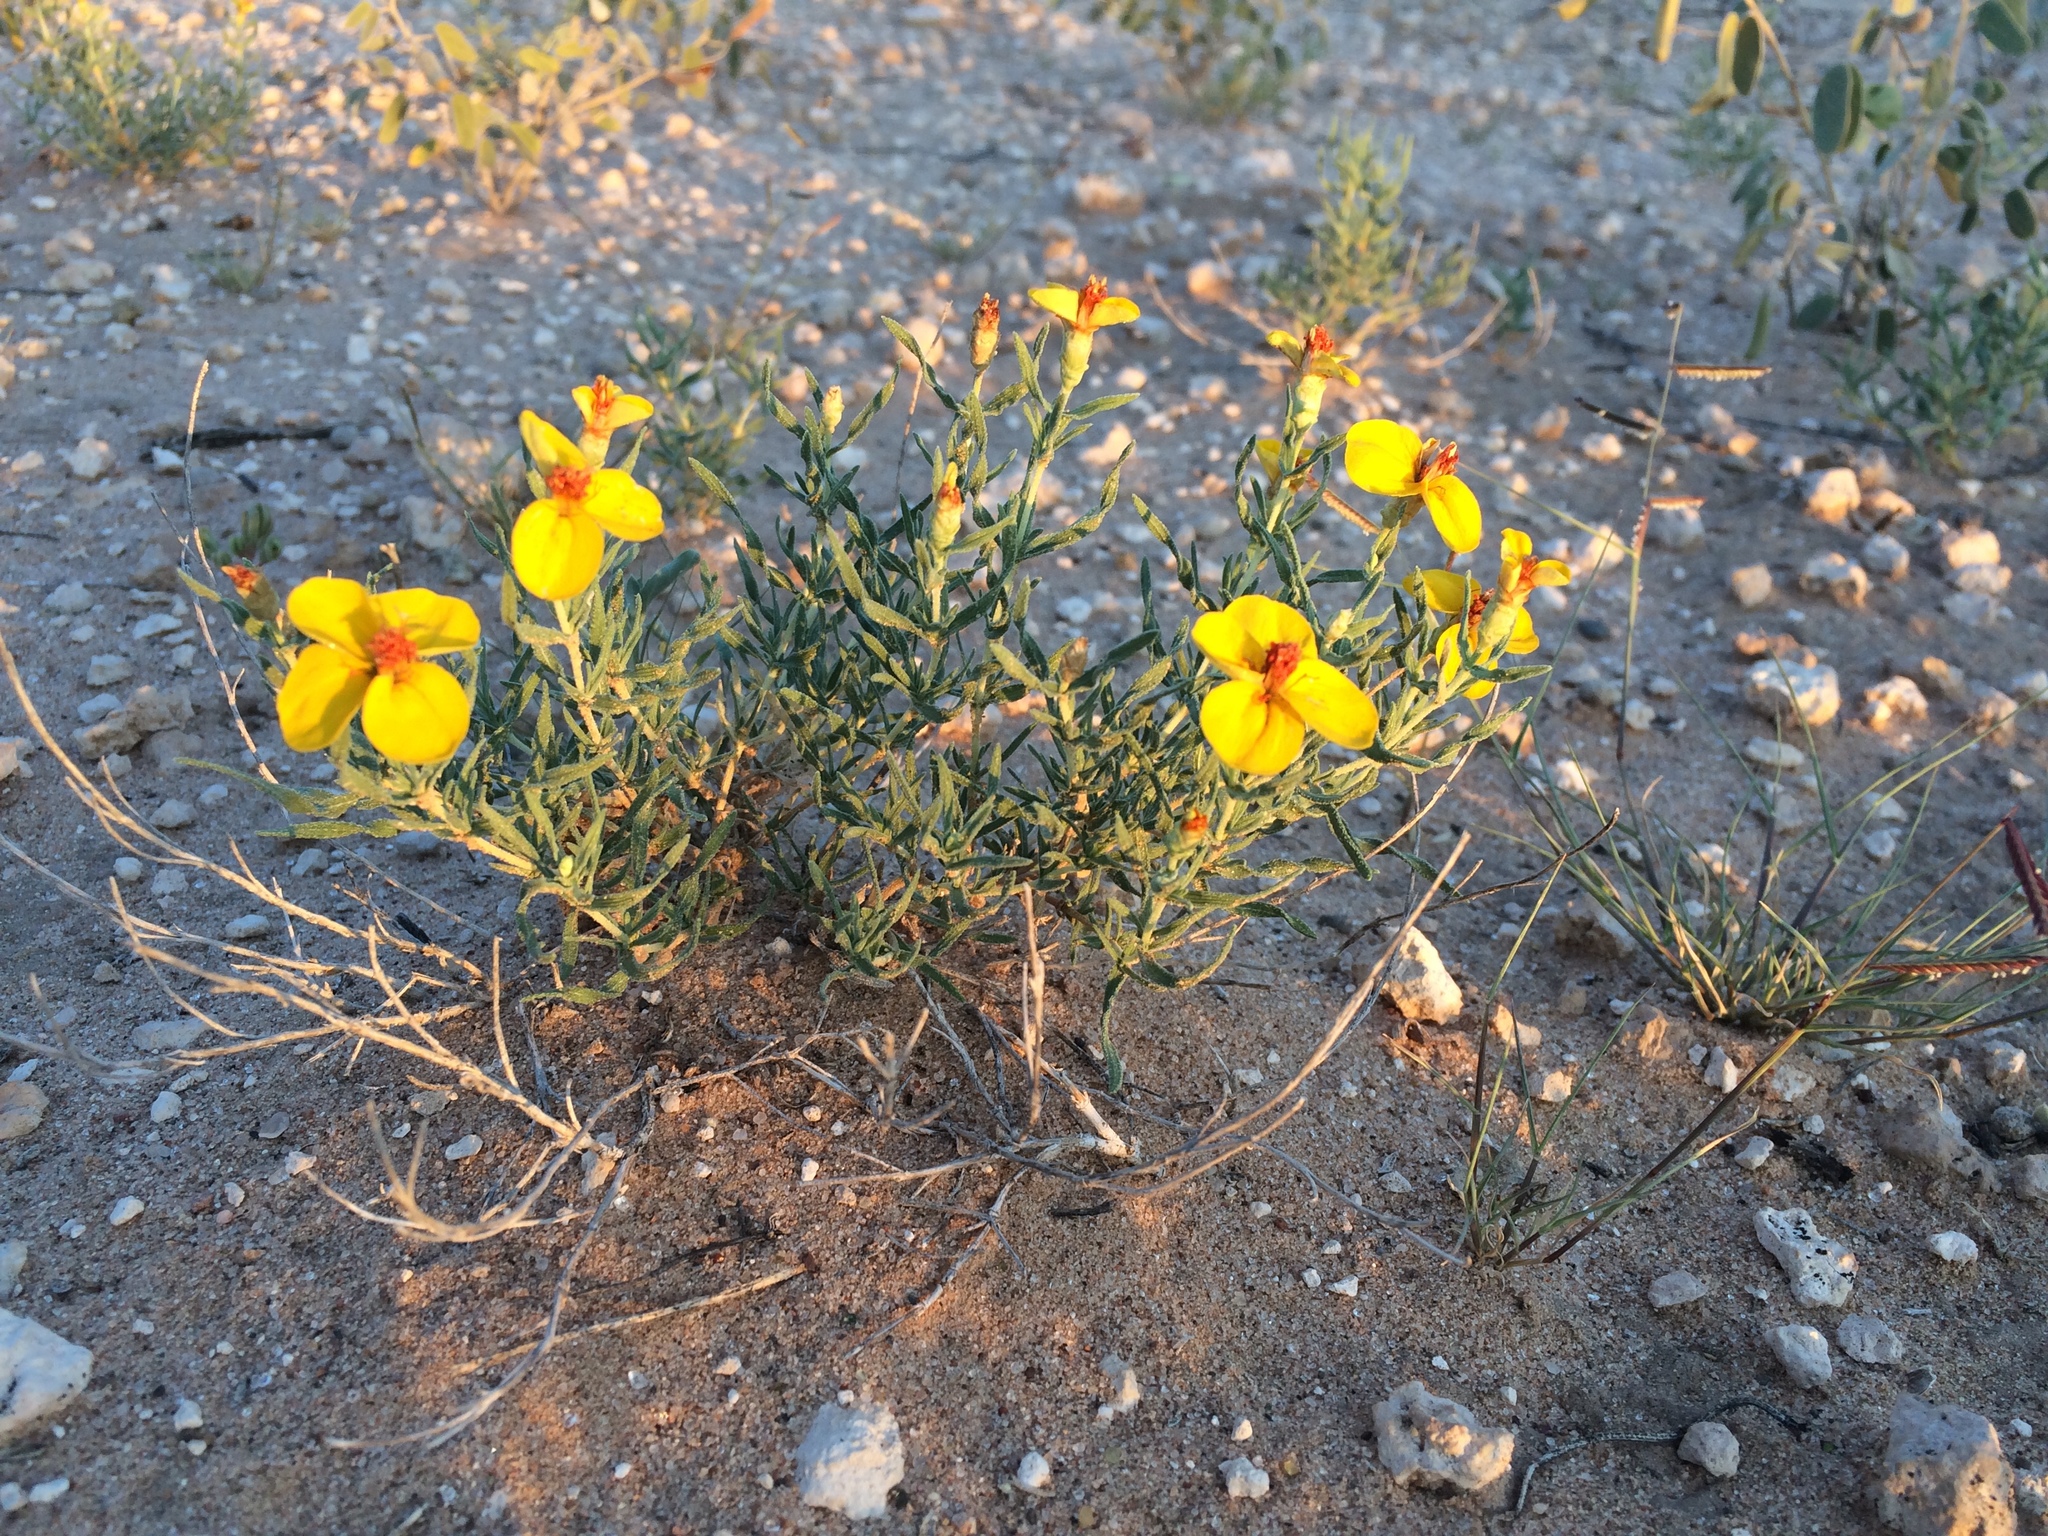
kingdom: Plantae
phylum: Tracheophyta
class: Magnoliopsida
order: Asterales
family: Asteraceae
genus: Zinnia
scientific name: Zinnia grandiflora
